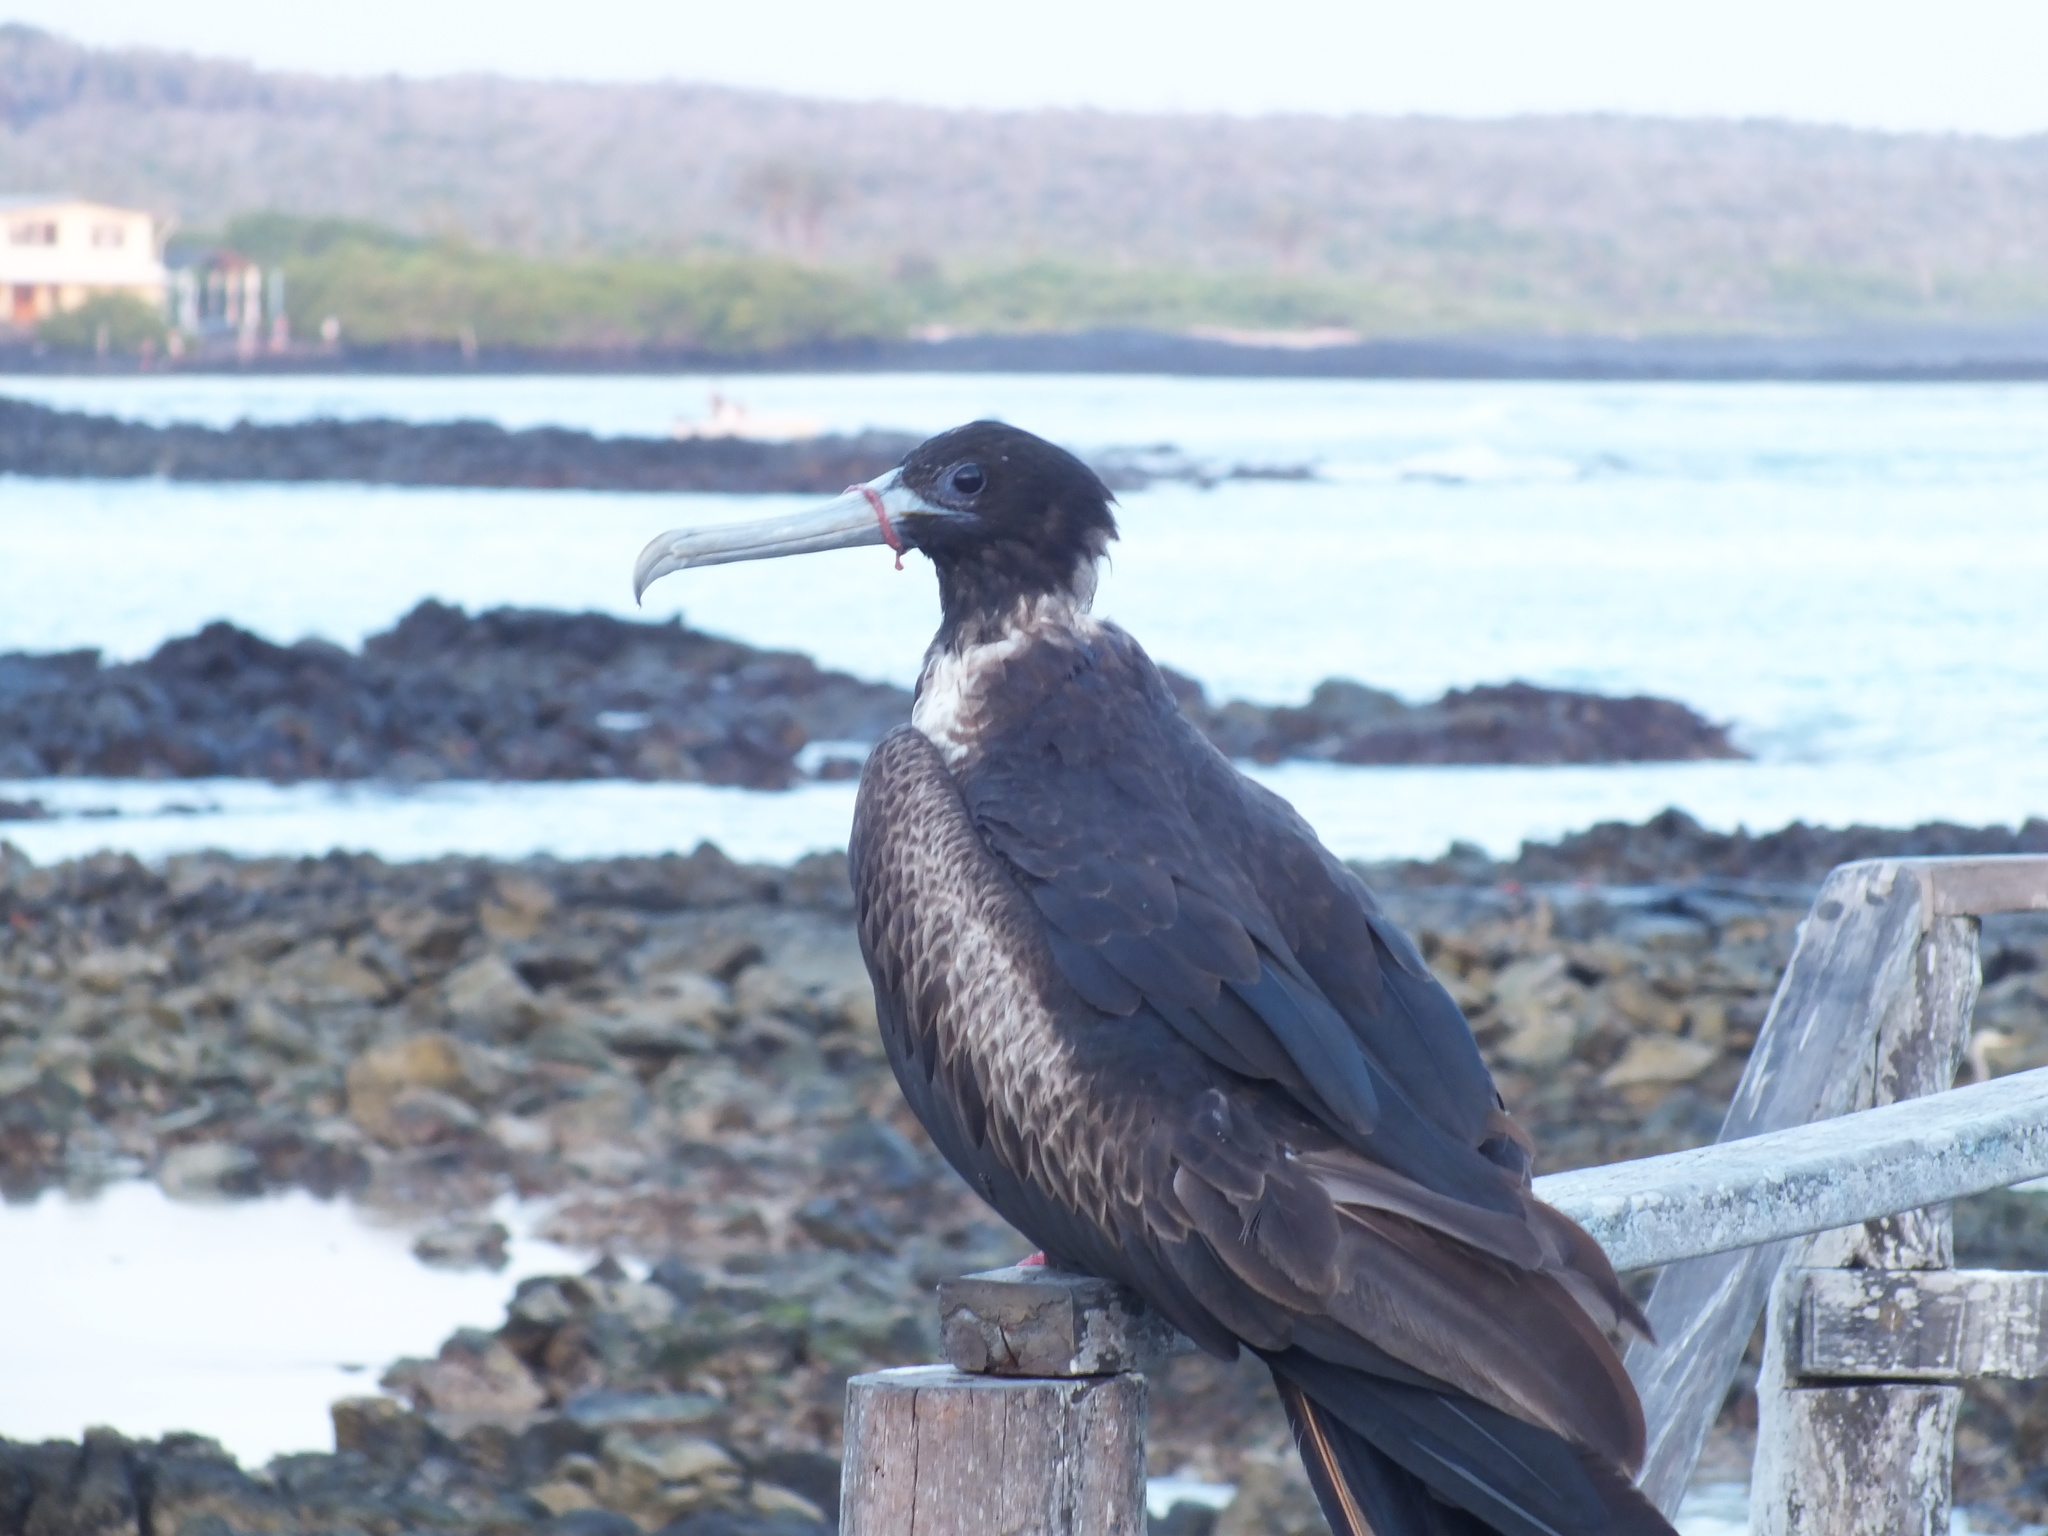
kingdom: Animalia
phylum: Chordata
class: Aves
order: Suliformes
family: Fregatidae
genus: Fregata
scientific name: Fregata magnificens
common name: Magnificent frigatebird
